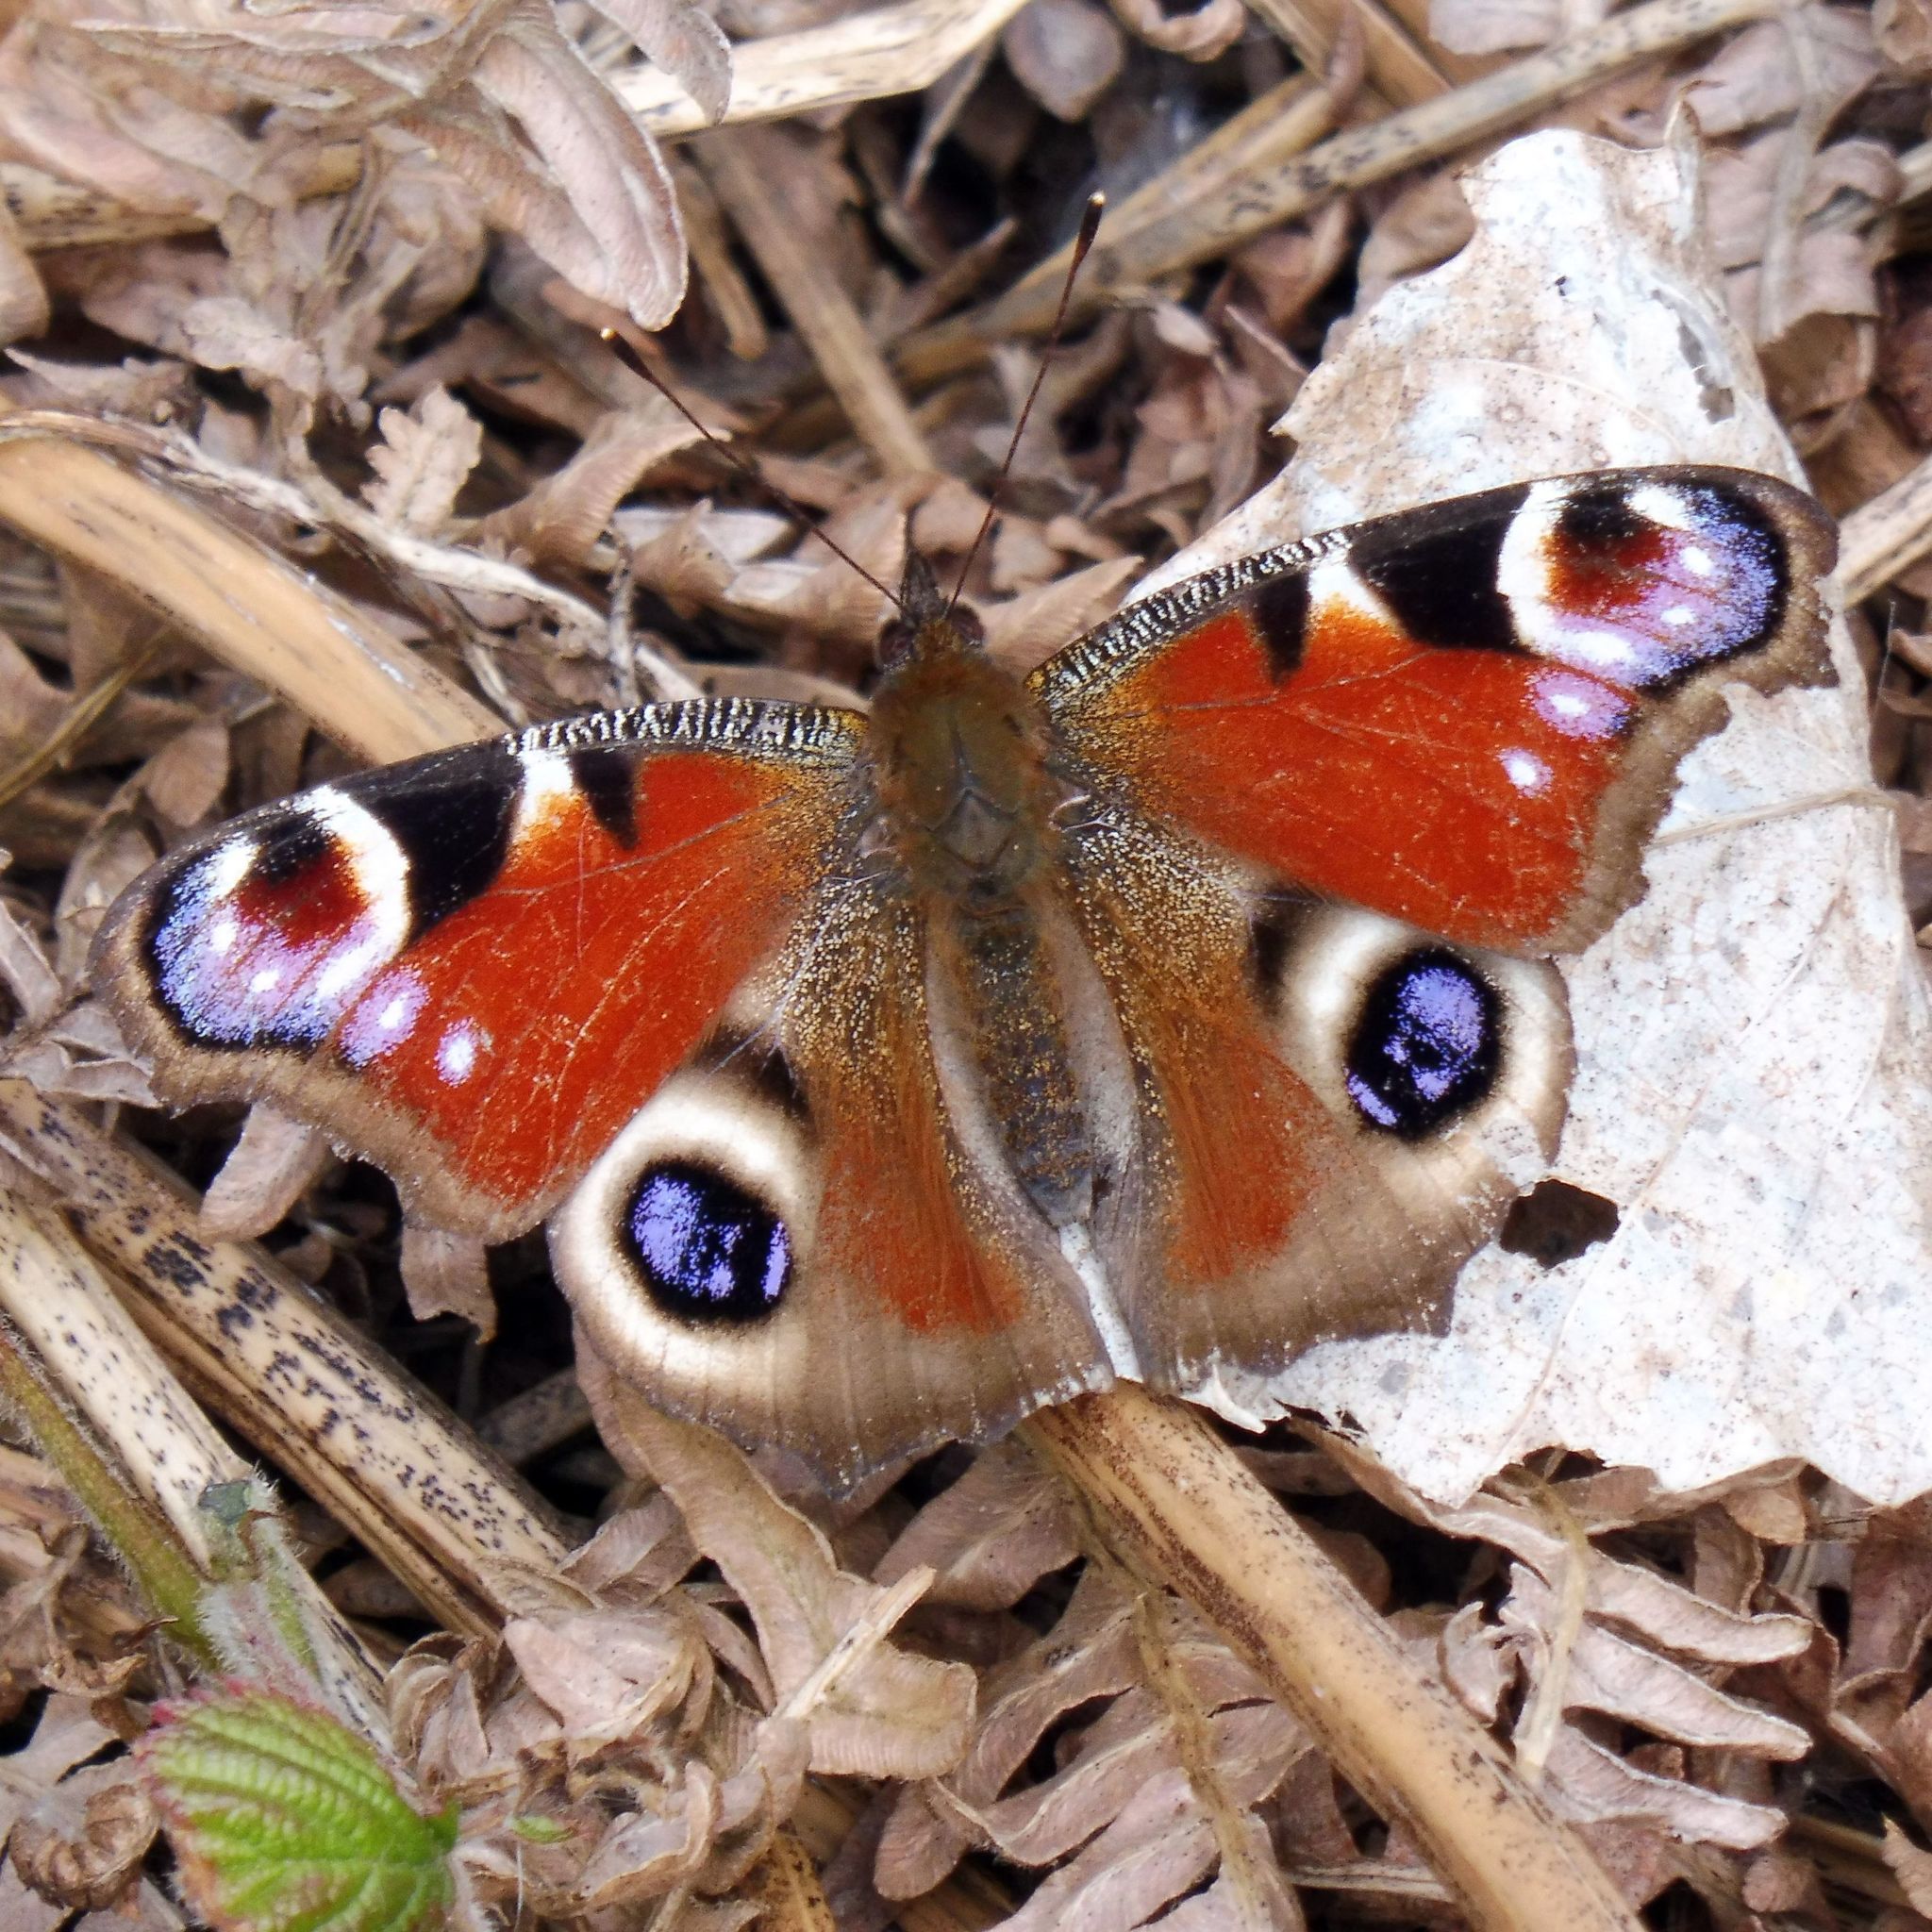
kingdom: Animalia
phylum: Arthropoda
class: Insecta
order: Lepidoptera
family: Nymphalidae
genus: Aglais
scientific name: Aglais io
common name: Peacock
